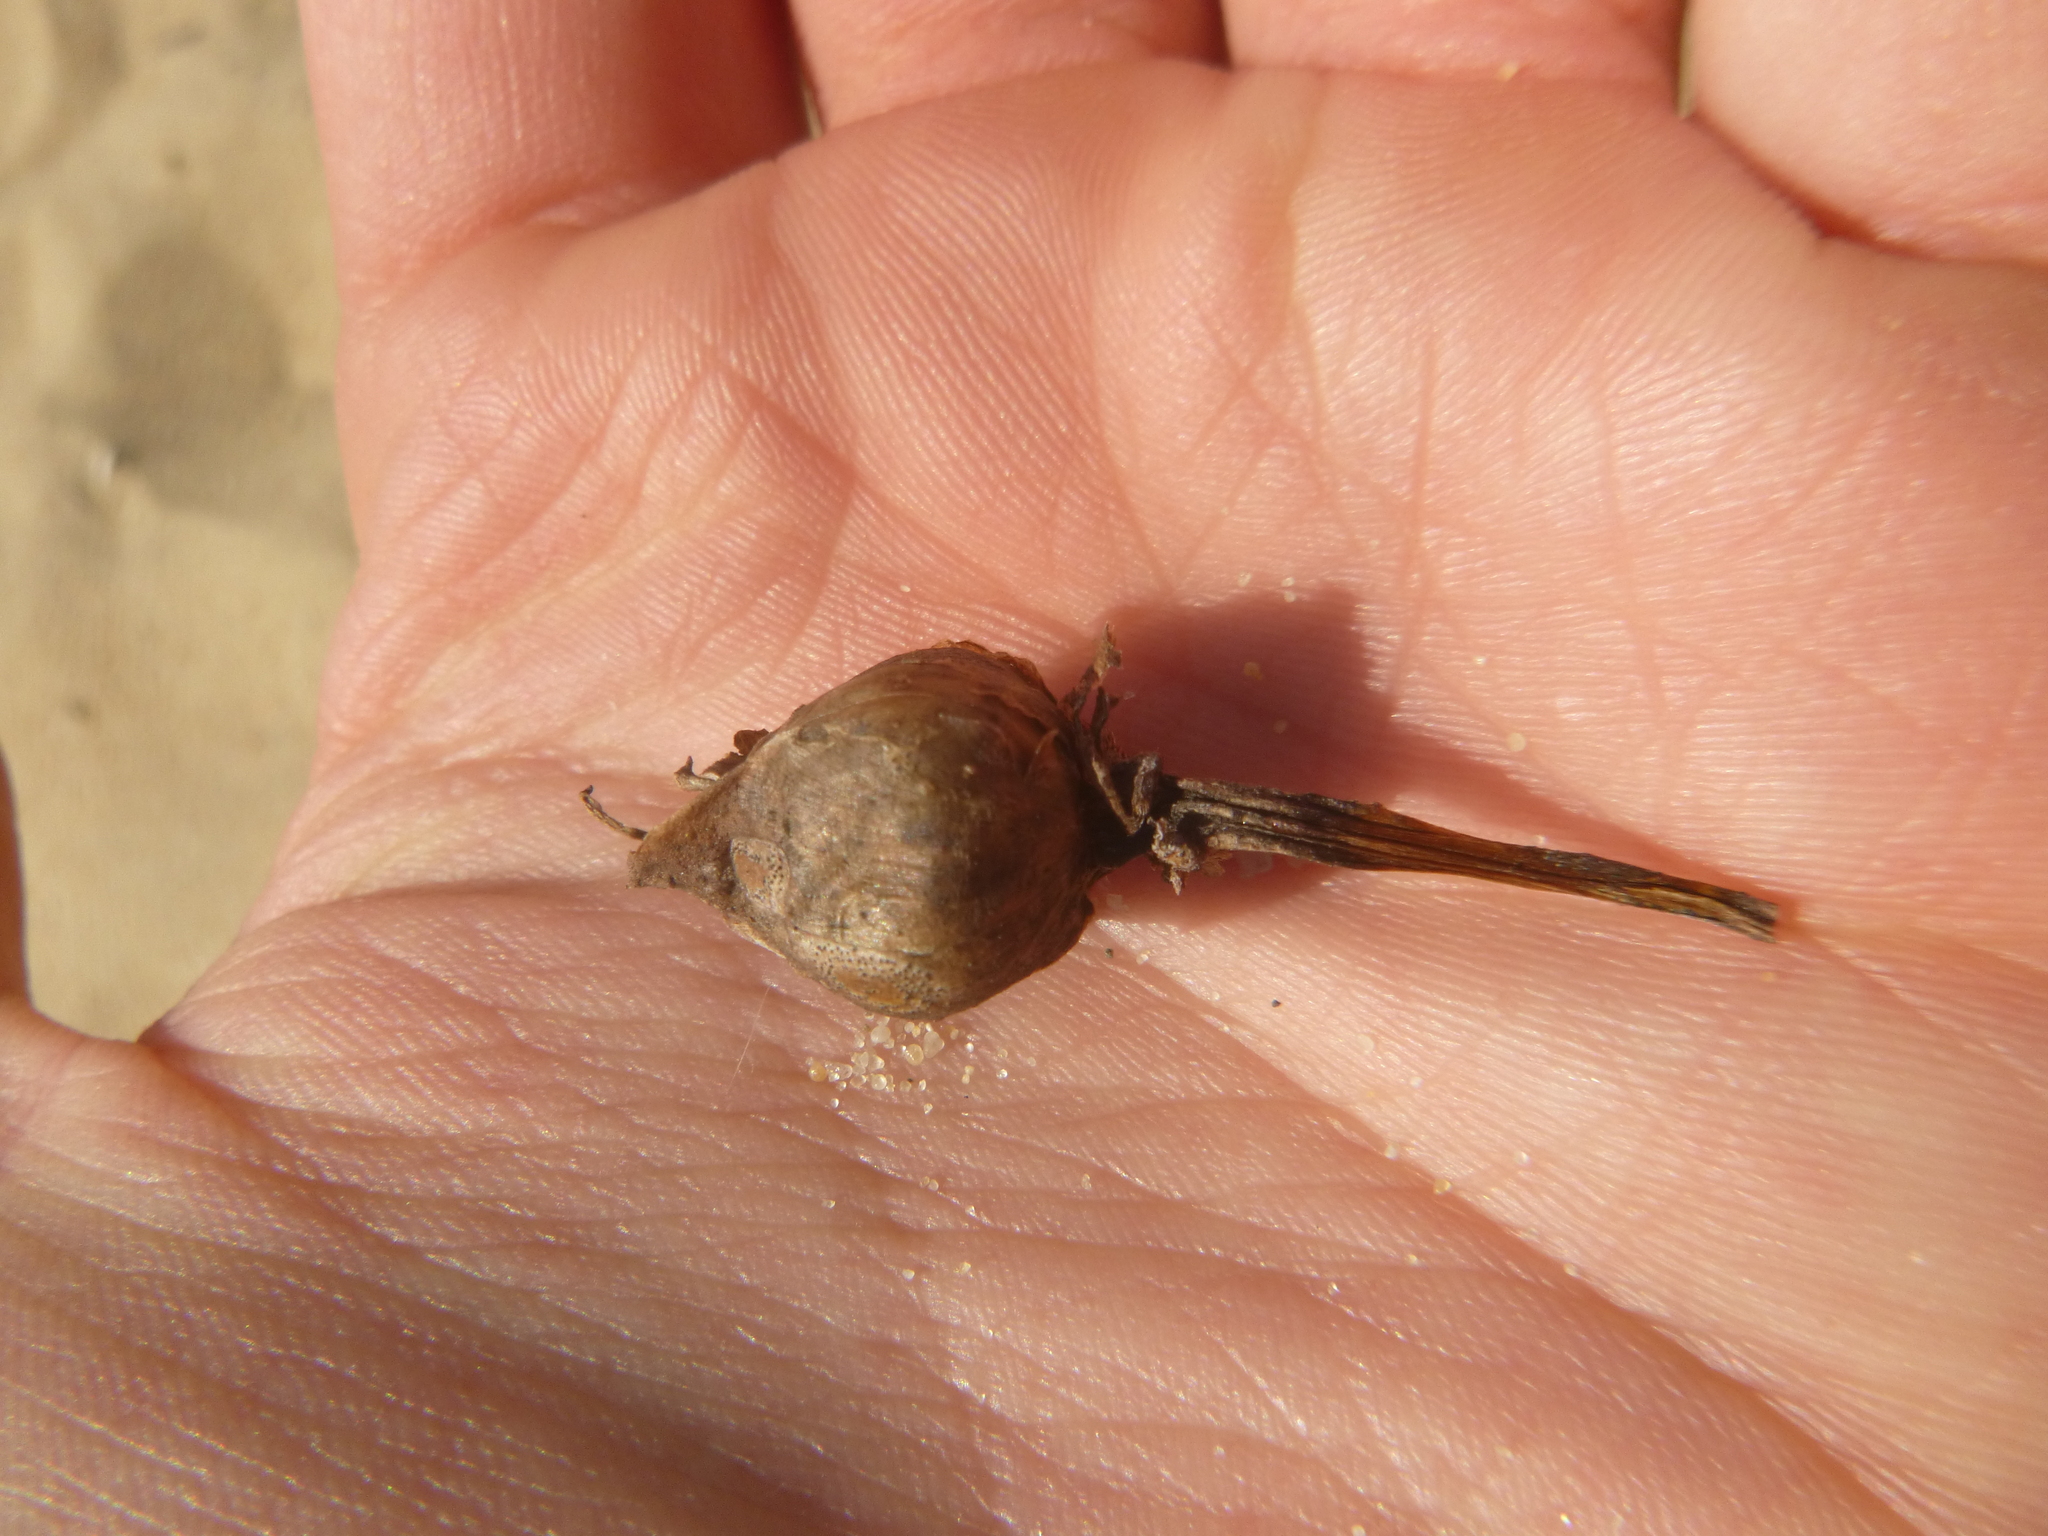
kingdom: Plantae
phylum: Tracheophyta
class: Magnoliopsida
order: Solanales
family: Convolvulaceae
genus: Calystegia
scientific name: Calystegia soldanella
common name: Sea bindweed
